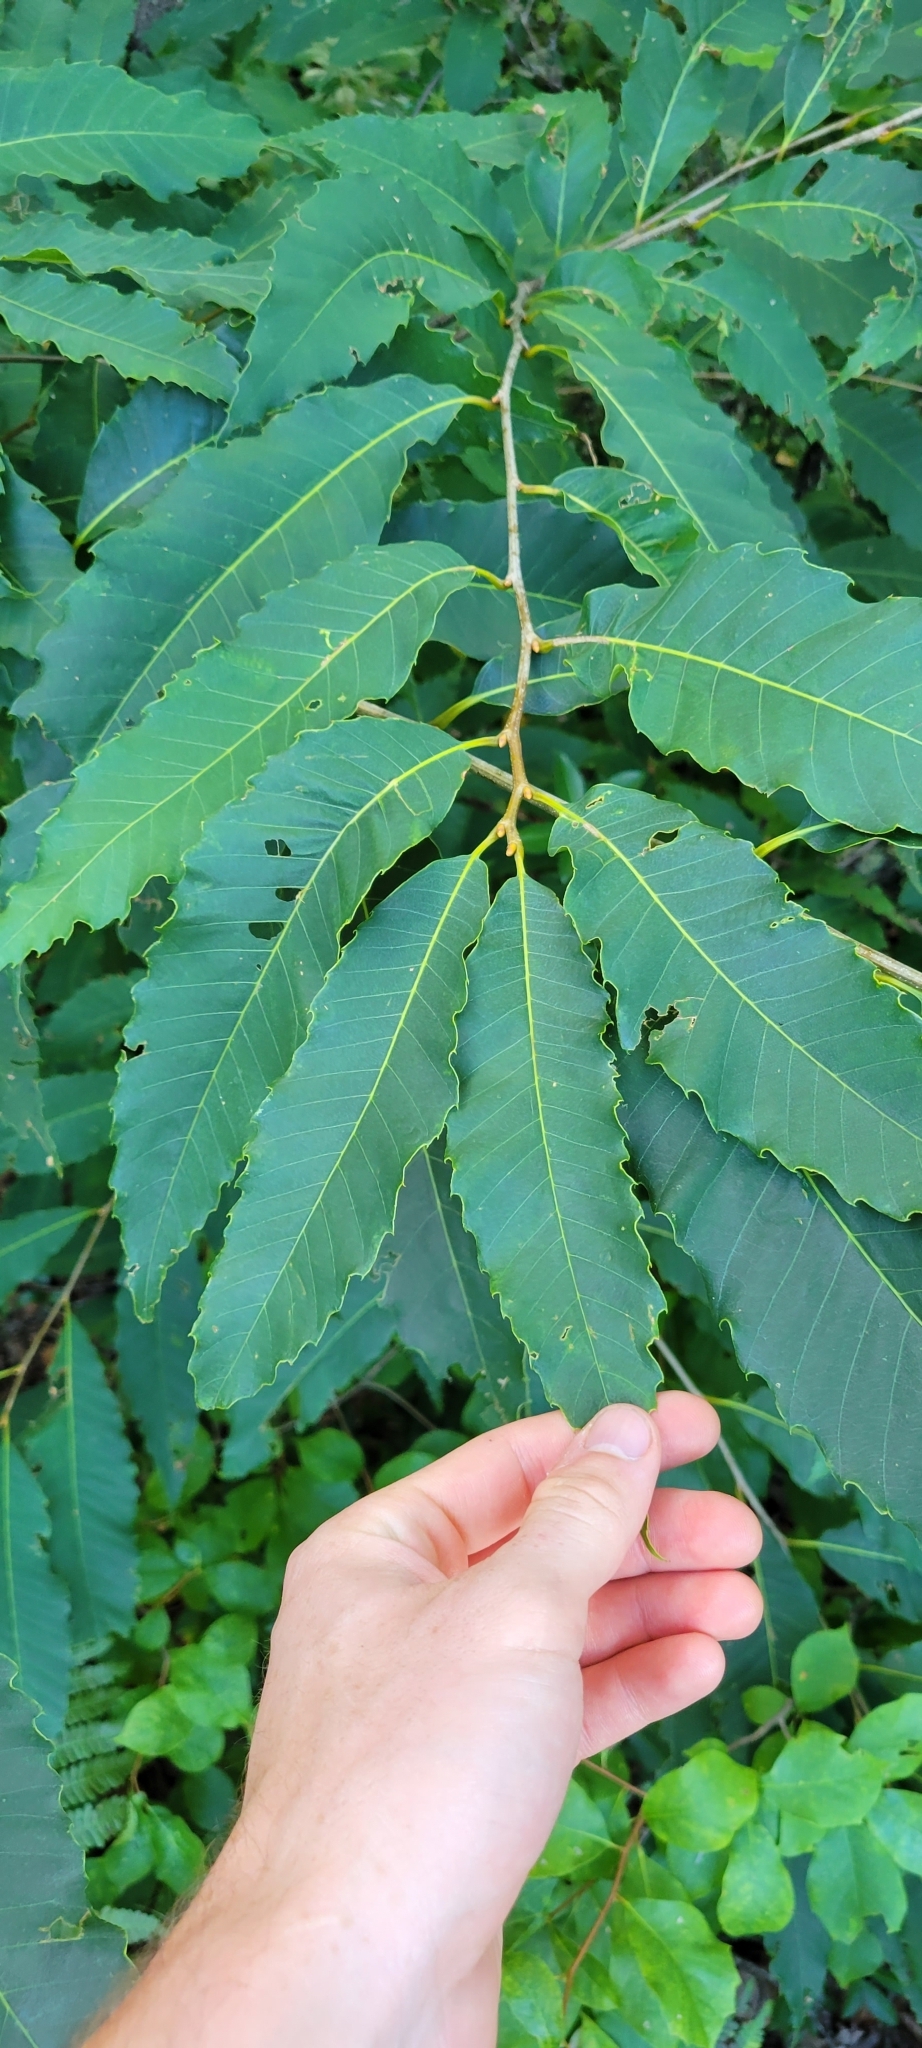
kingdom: Plantae
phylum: Tracheophyta
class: Magnoliopsida
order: Fagales
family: Fagaceae
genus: Castanea
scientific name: Castanea dentata
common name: American chestnut
